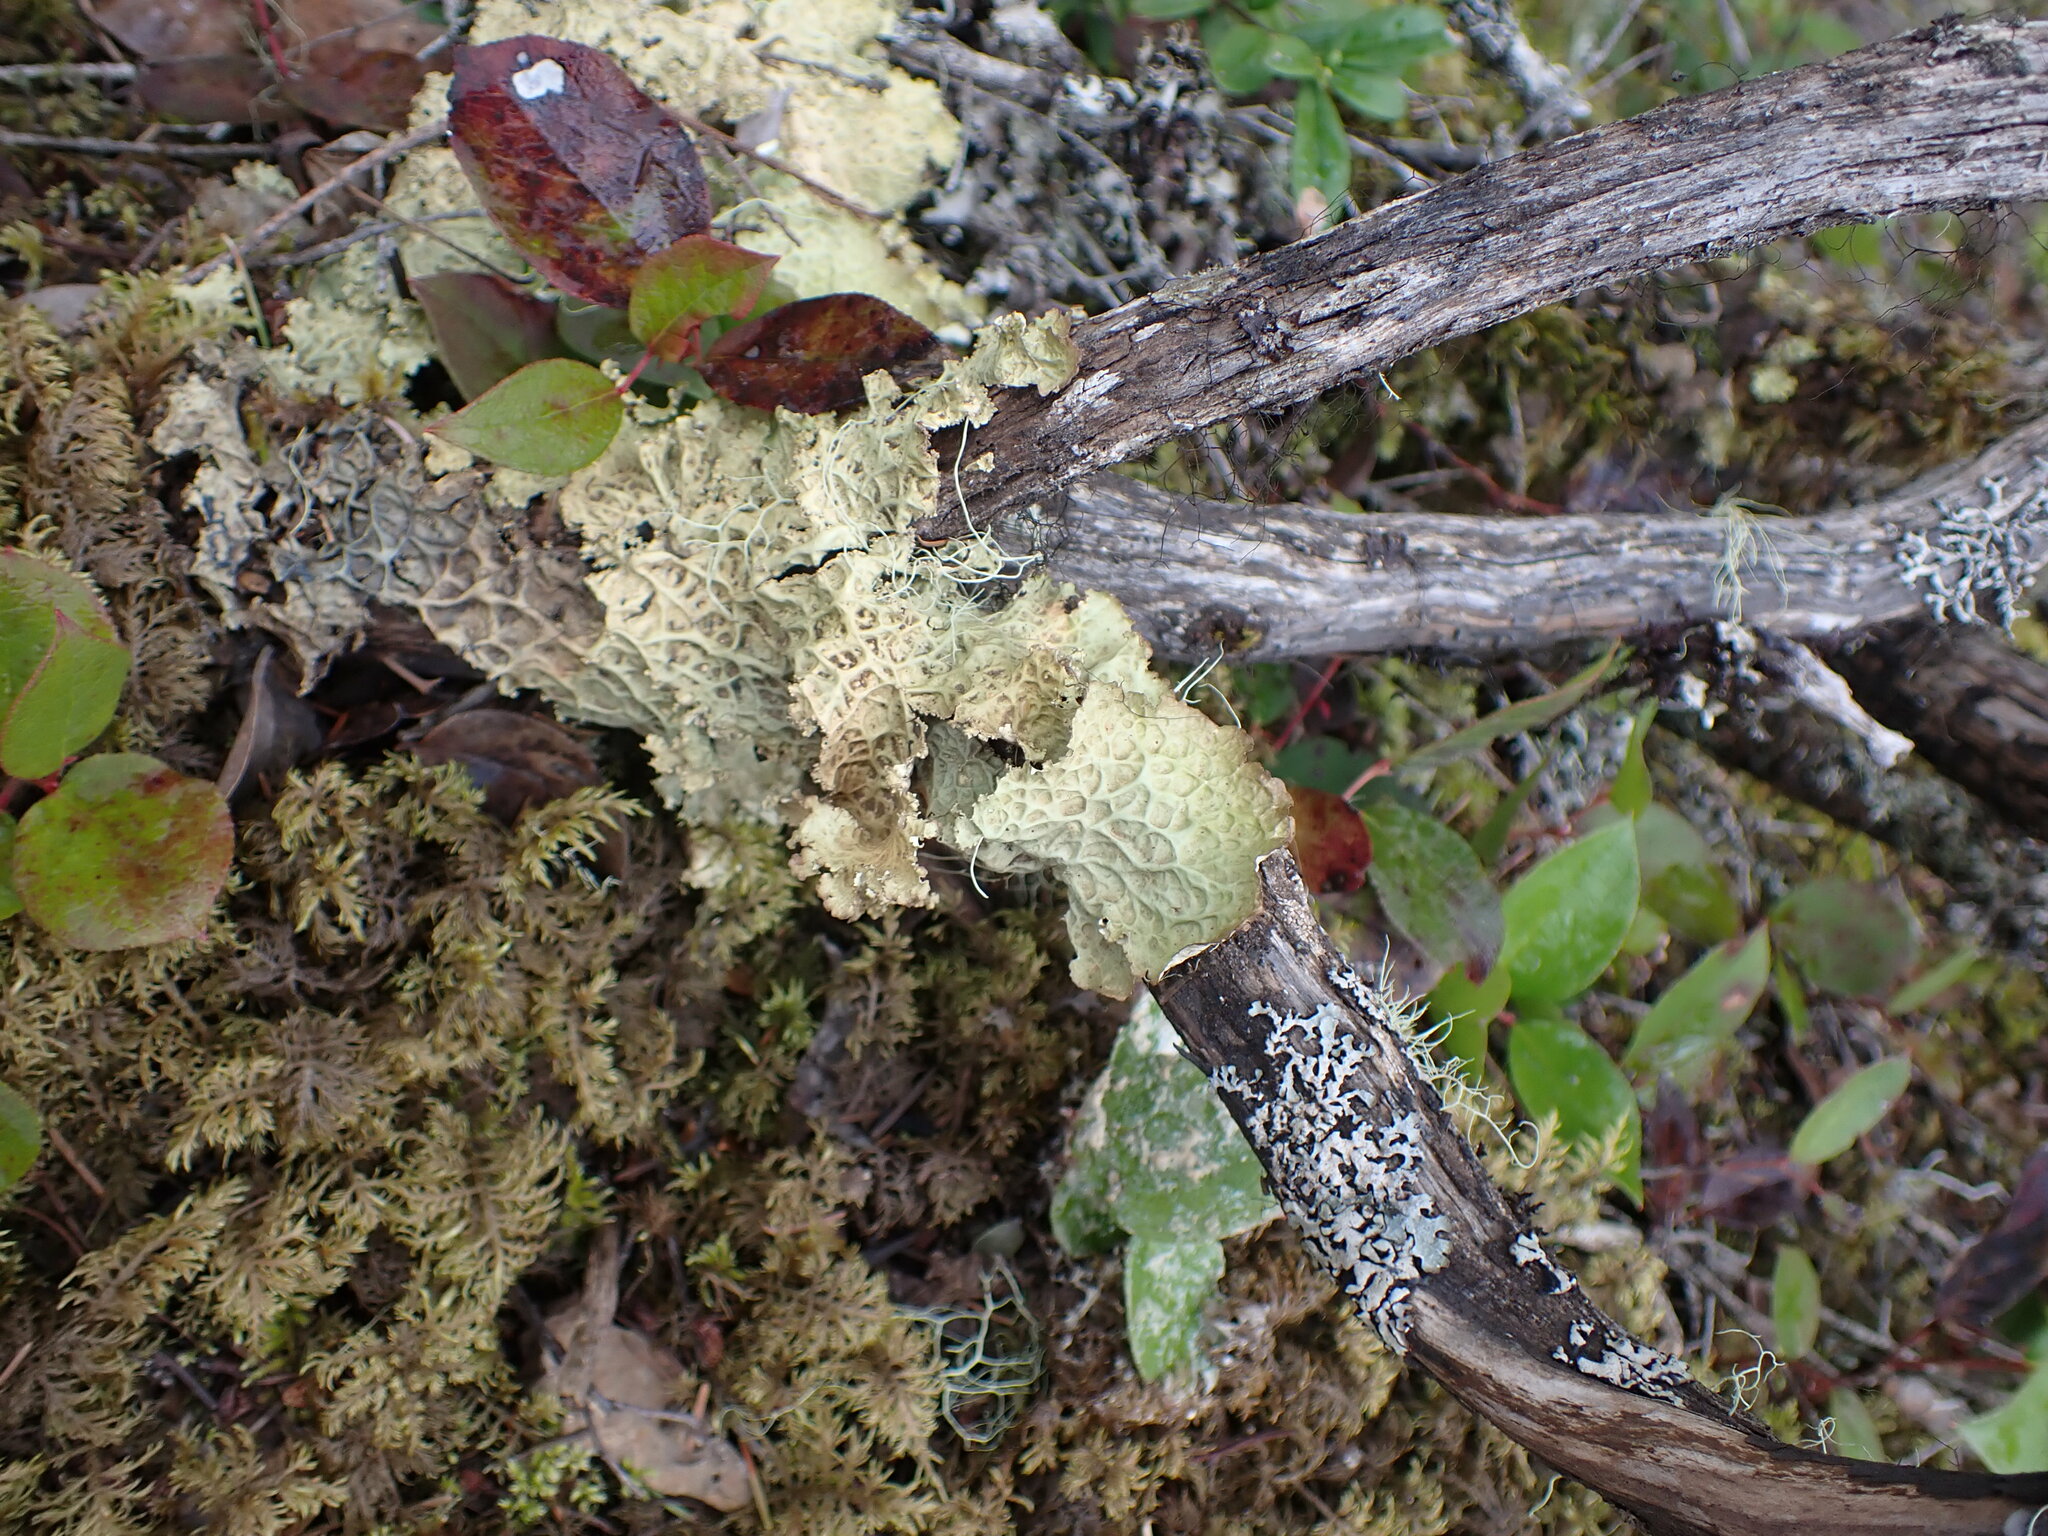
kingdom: Fungi
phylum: Ascomycota
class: Lecanoromycetes
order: Peltigerales
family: Lobariaceae
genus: Lobaria
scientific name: Lobaria oregana
